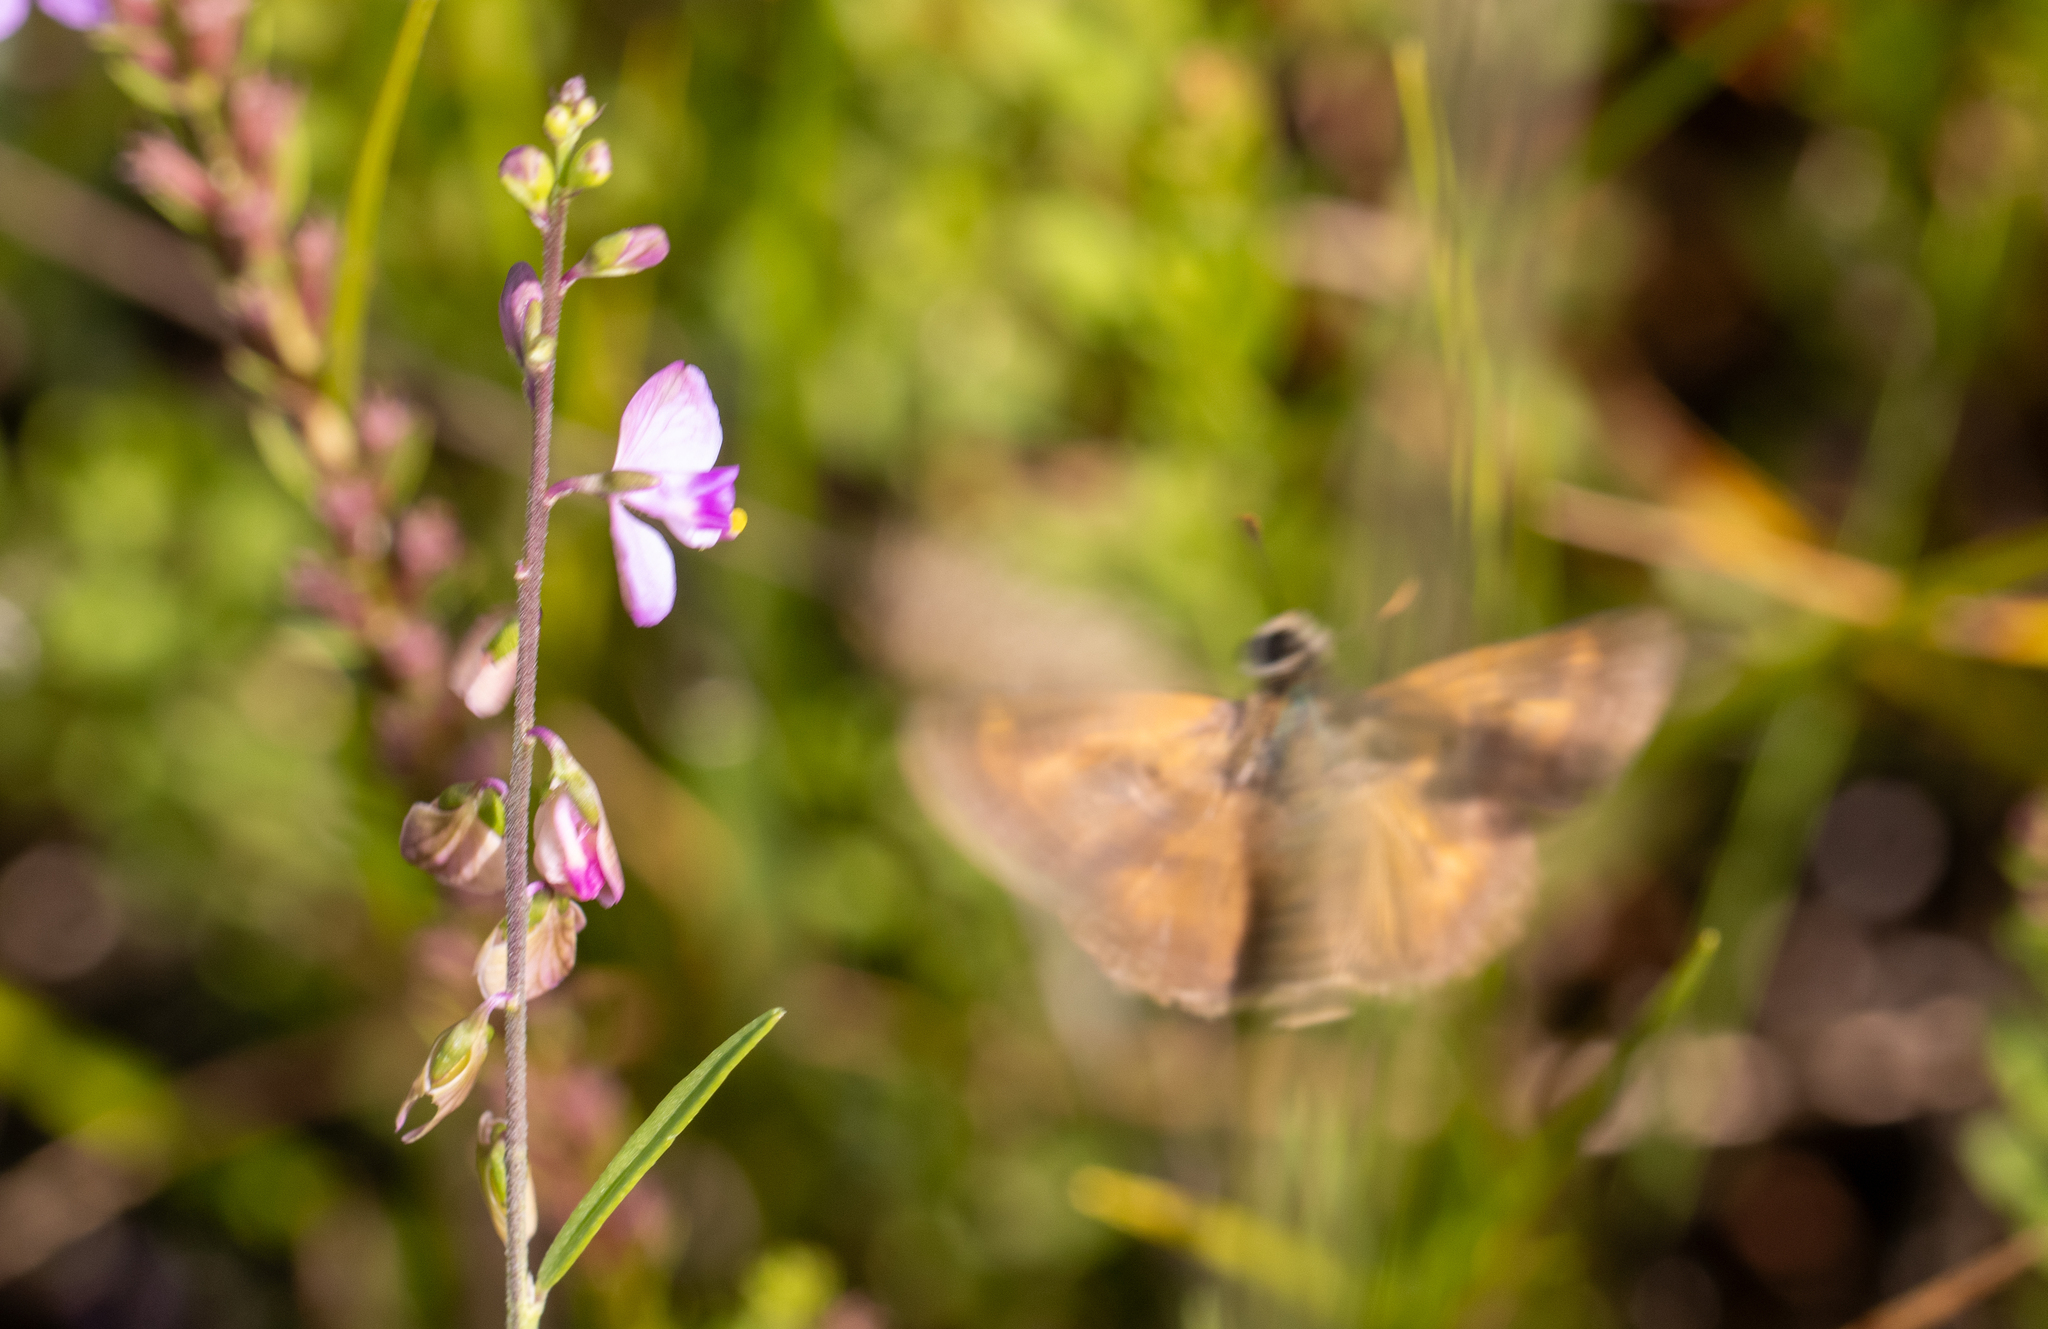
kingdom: Animalia
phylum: Arthropoda
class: Insecta
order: Lepidoptera
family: Hesperiidae
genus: Polites
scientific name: Polites otho
